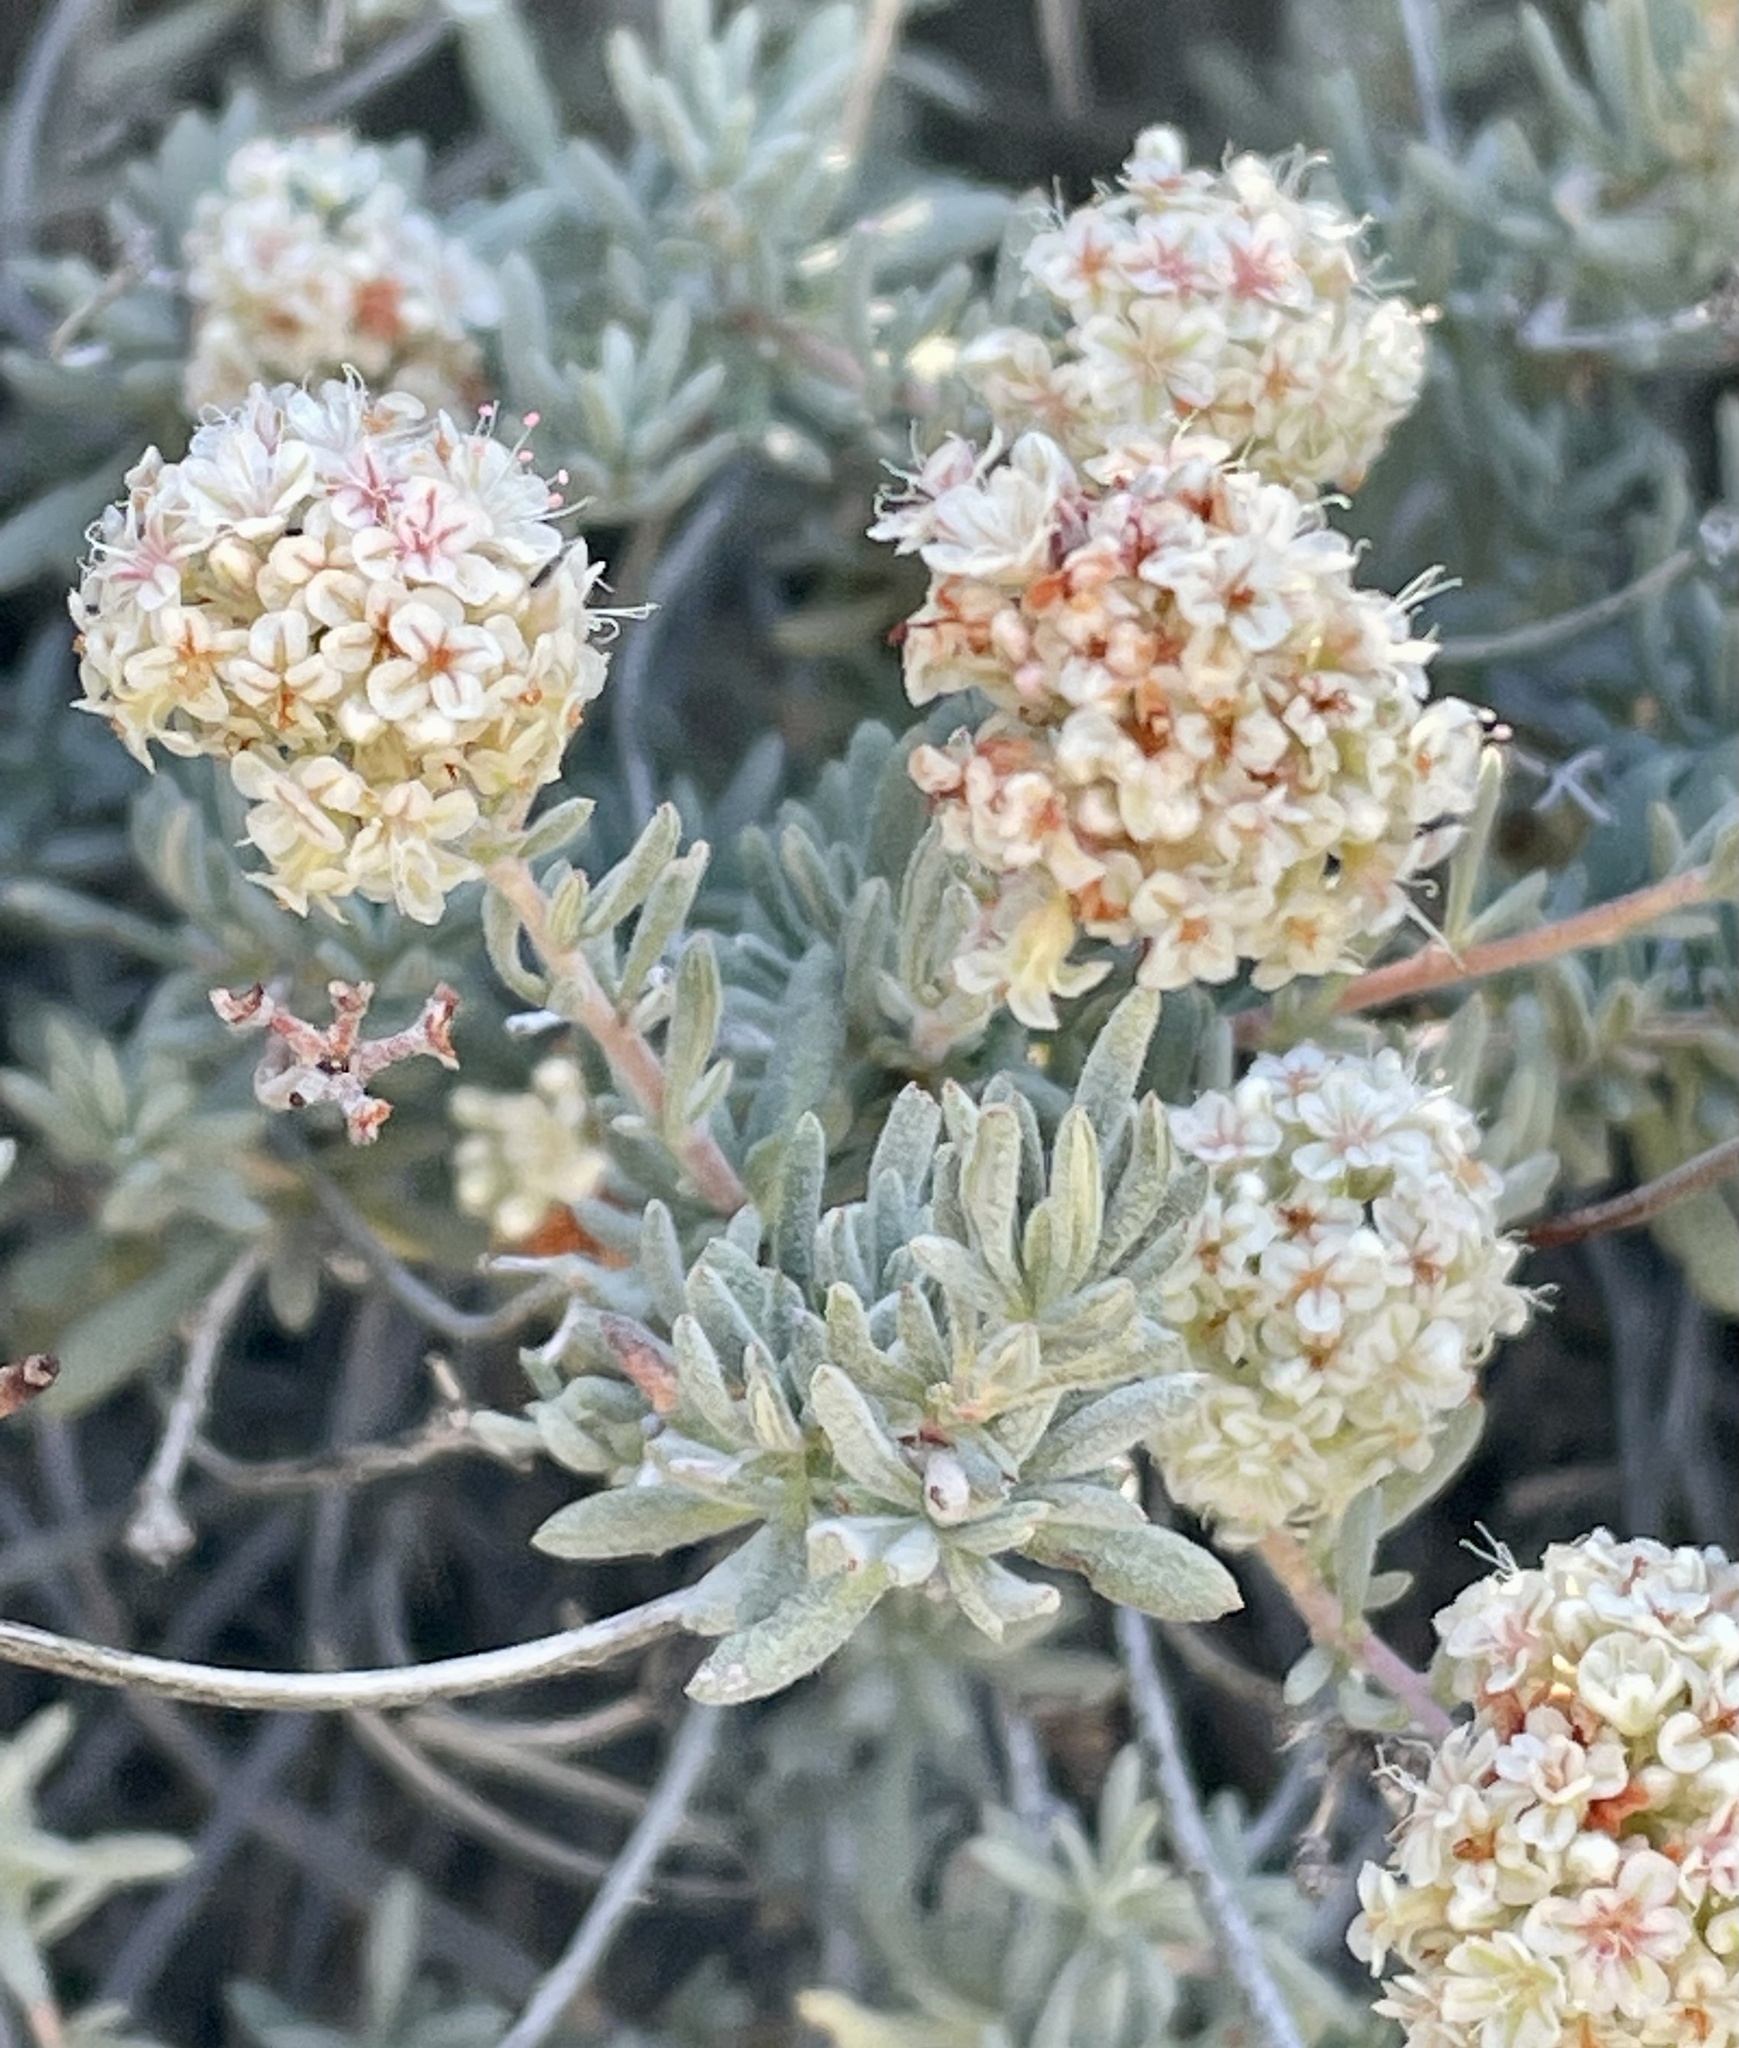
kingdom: Plantae
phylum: Tracheophyta
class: Magnoliopsida
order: Caryophyllales
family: Polygonaceae
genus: Eriogonum
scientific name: Eriogonum fasciculatum
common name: California wild buckwheat
